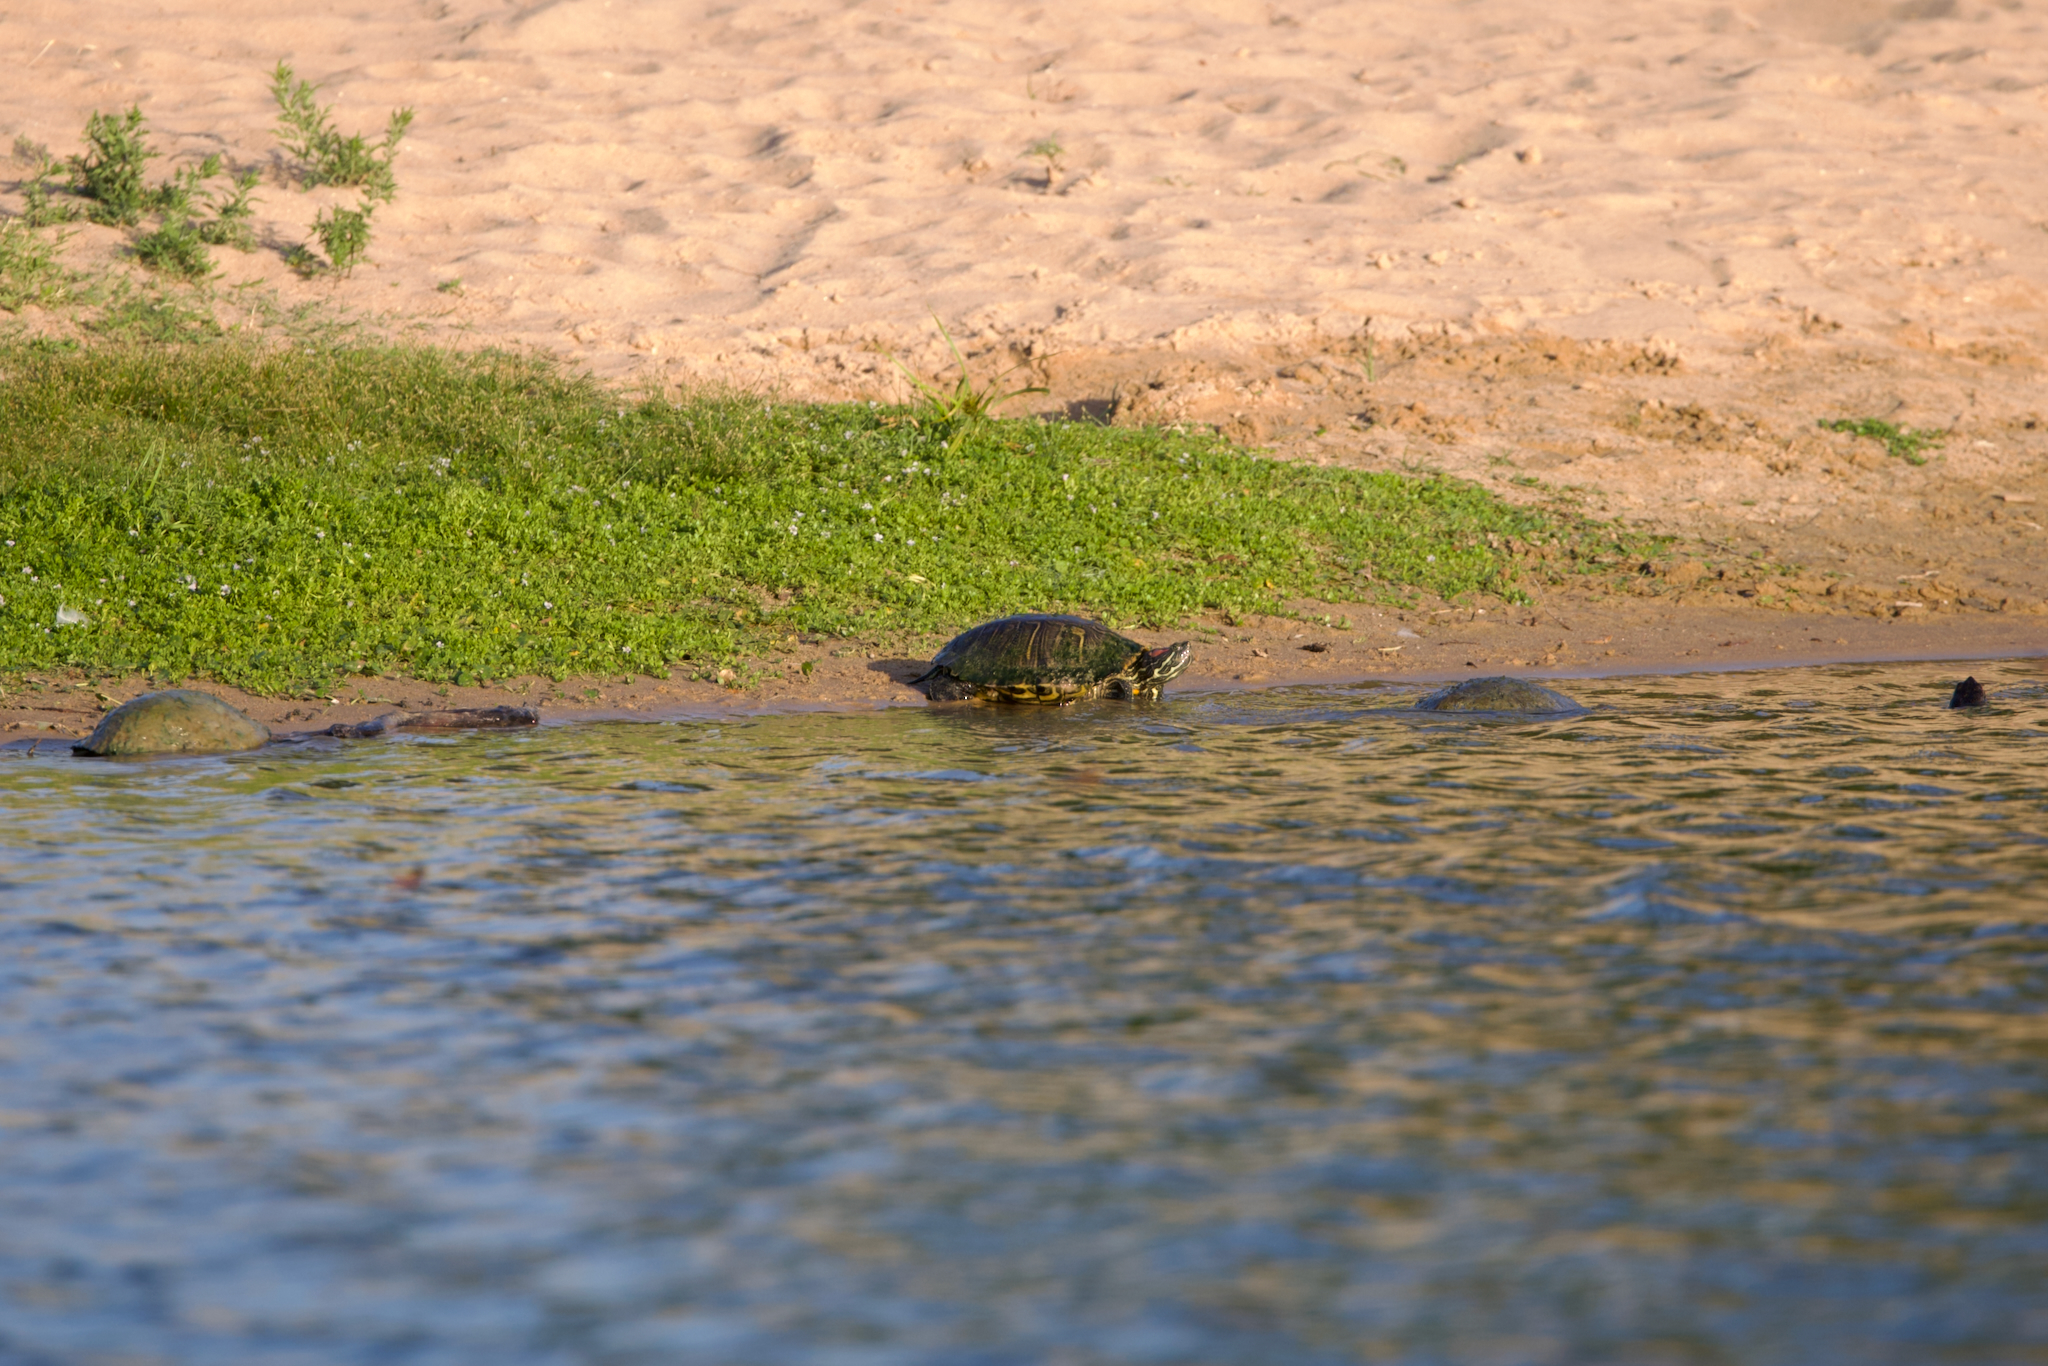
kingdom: Animalia
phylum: Chordata
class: Testudines
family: Emydidae
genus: Trachemys
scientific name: Trachemys scripta
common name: Slider
